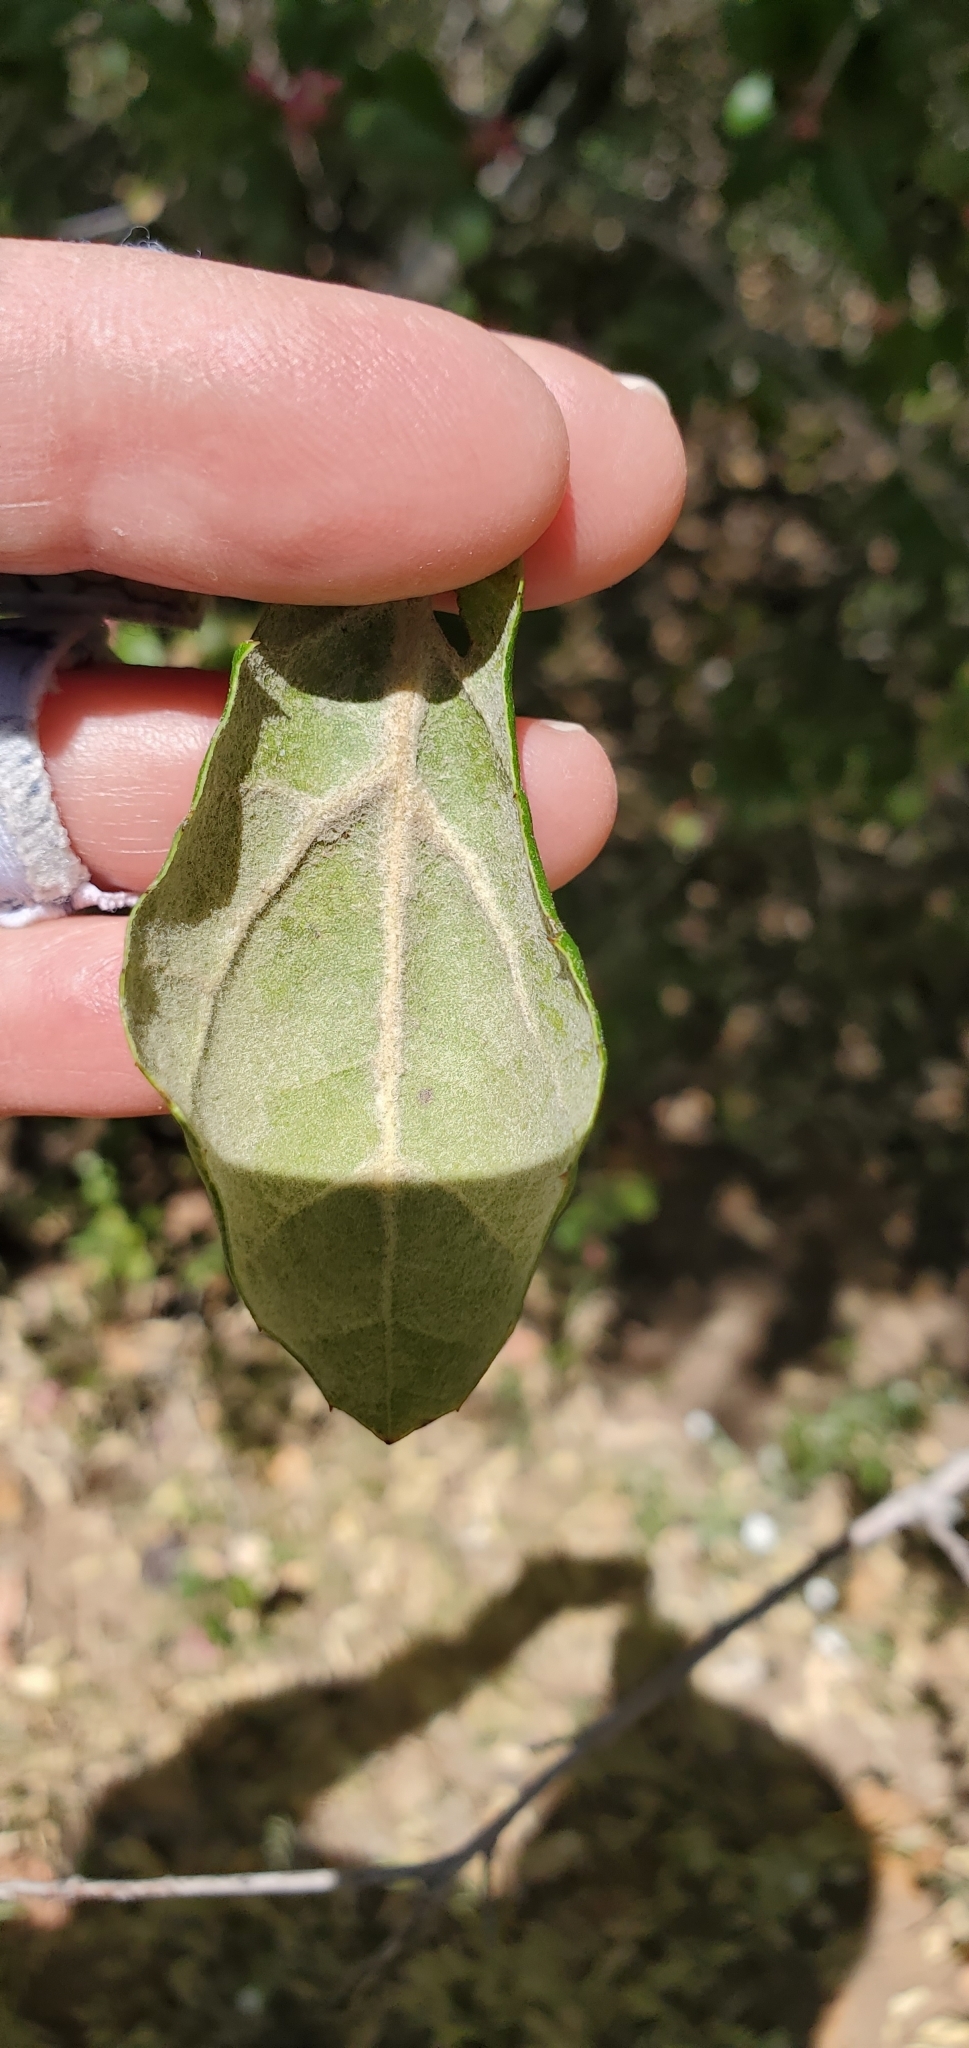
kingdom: Plantae
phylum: Tracheophyta
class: Magnoliopsida
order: Fagales
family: Fagaceae
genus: Quercus
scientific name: Quercus agrifolia
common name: California live oak
